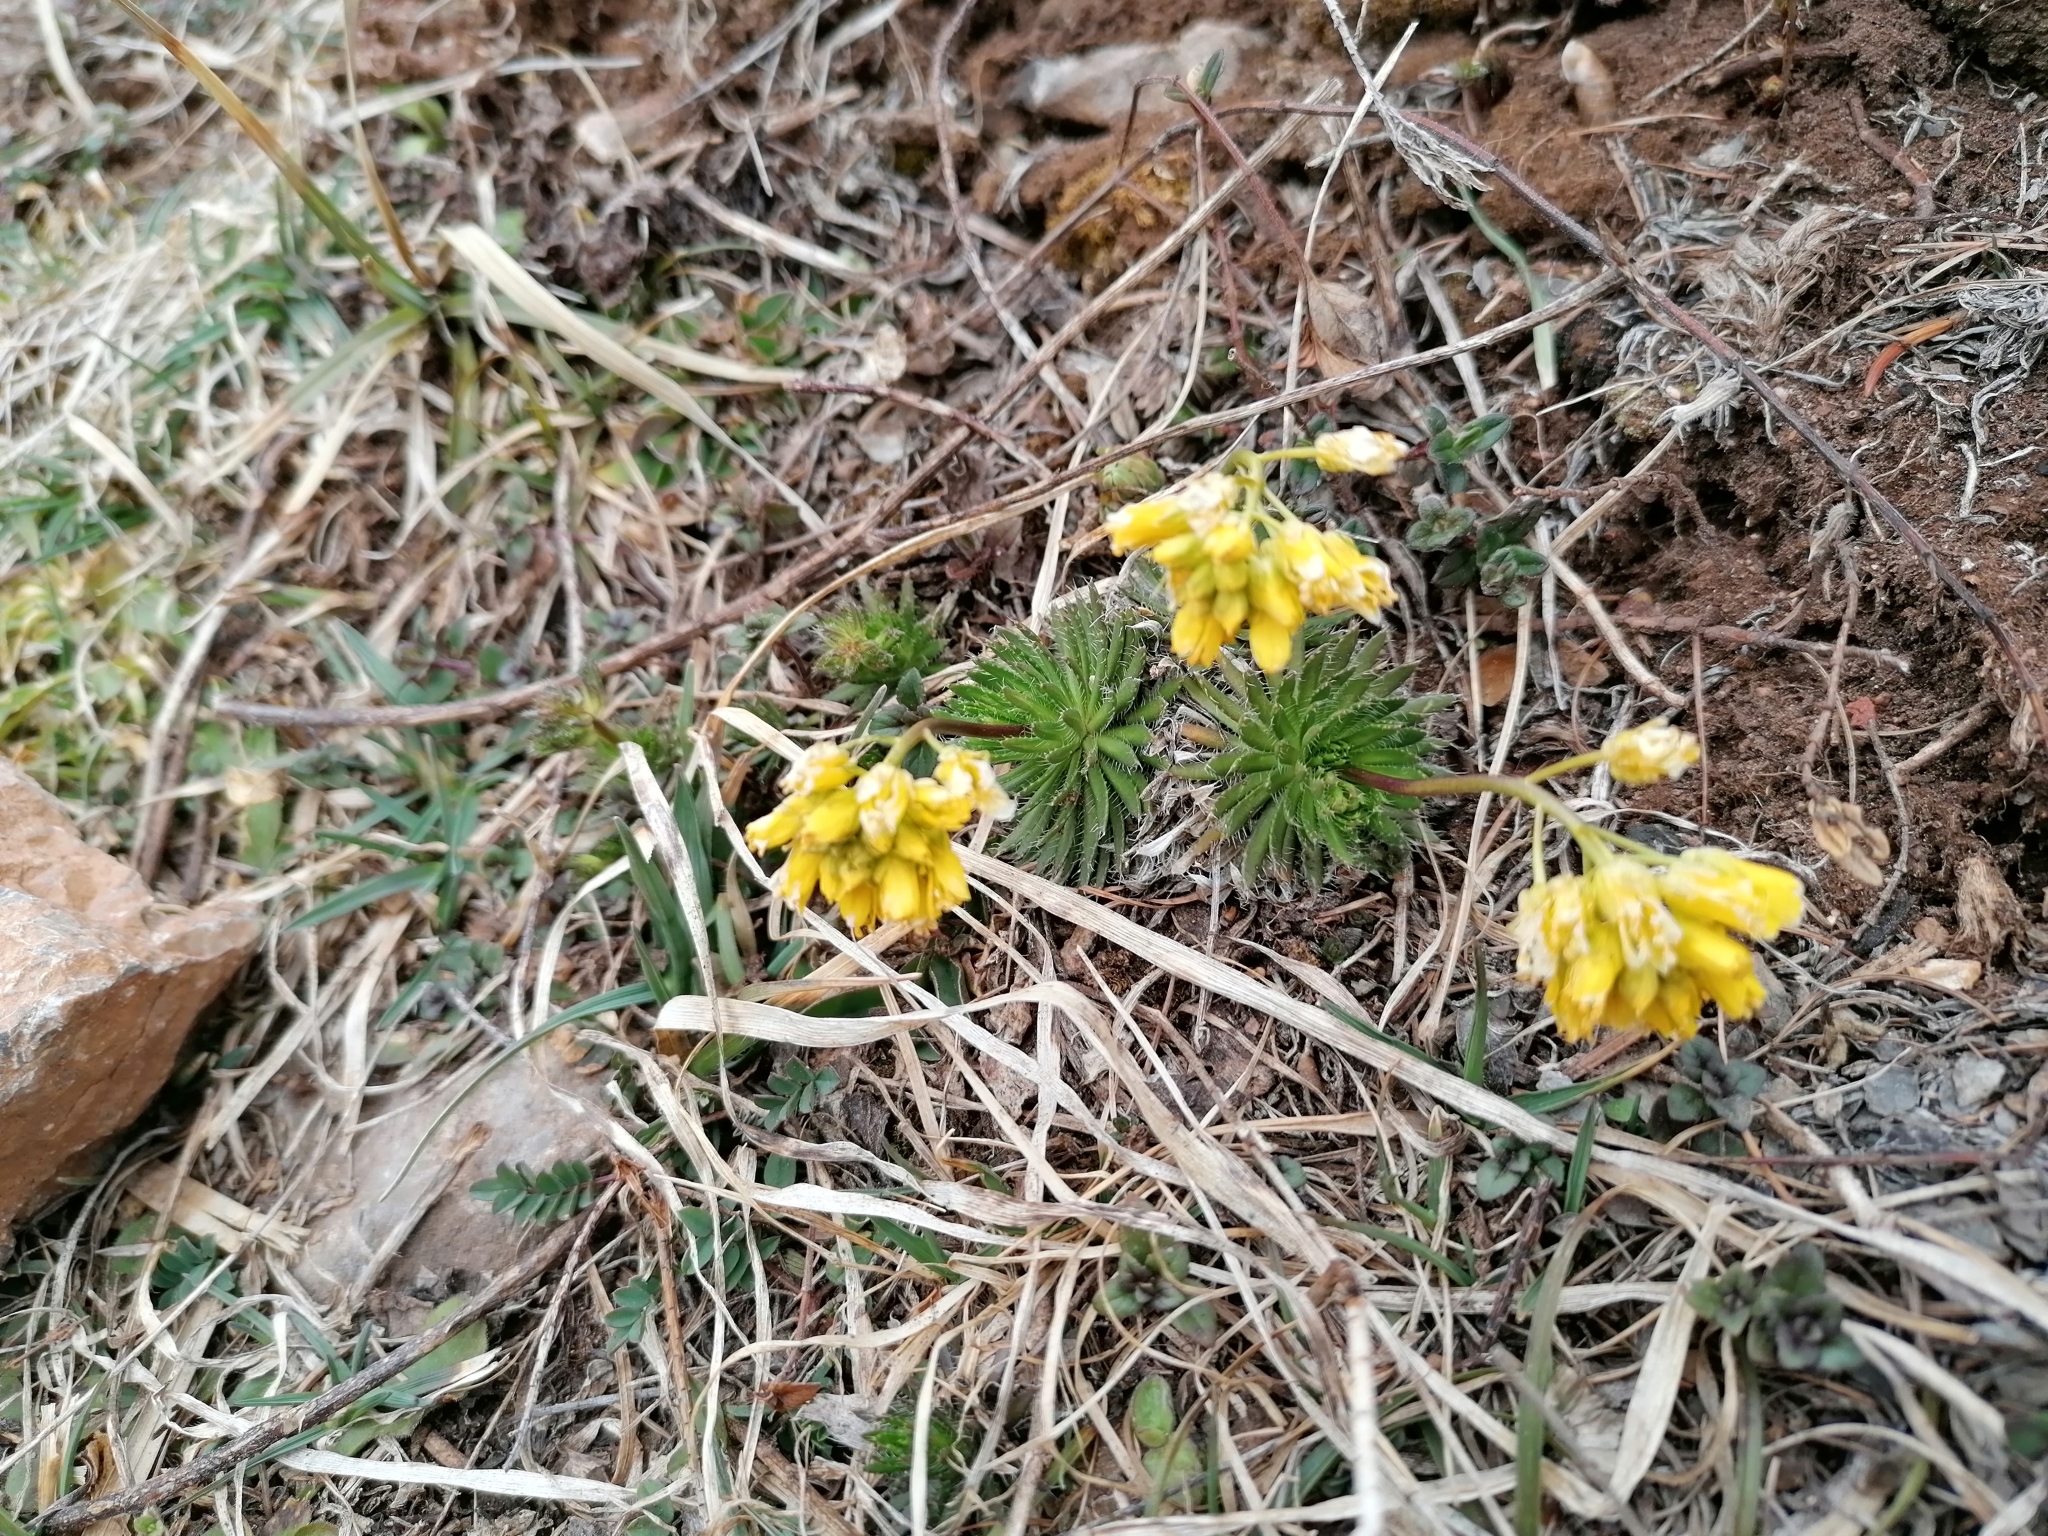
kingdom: Plantae
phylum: Tracheophyta
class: Magnoliopsida
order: Brassicales
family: Brassicaceae
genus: Draba
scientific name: Draba aizoides
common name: Yellow whitlowgrass
